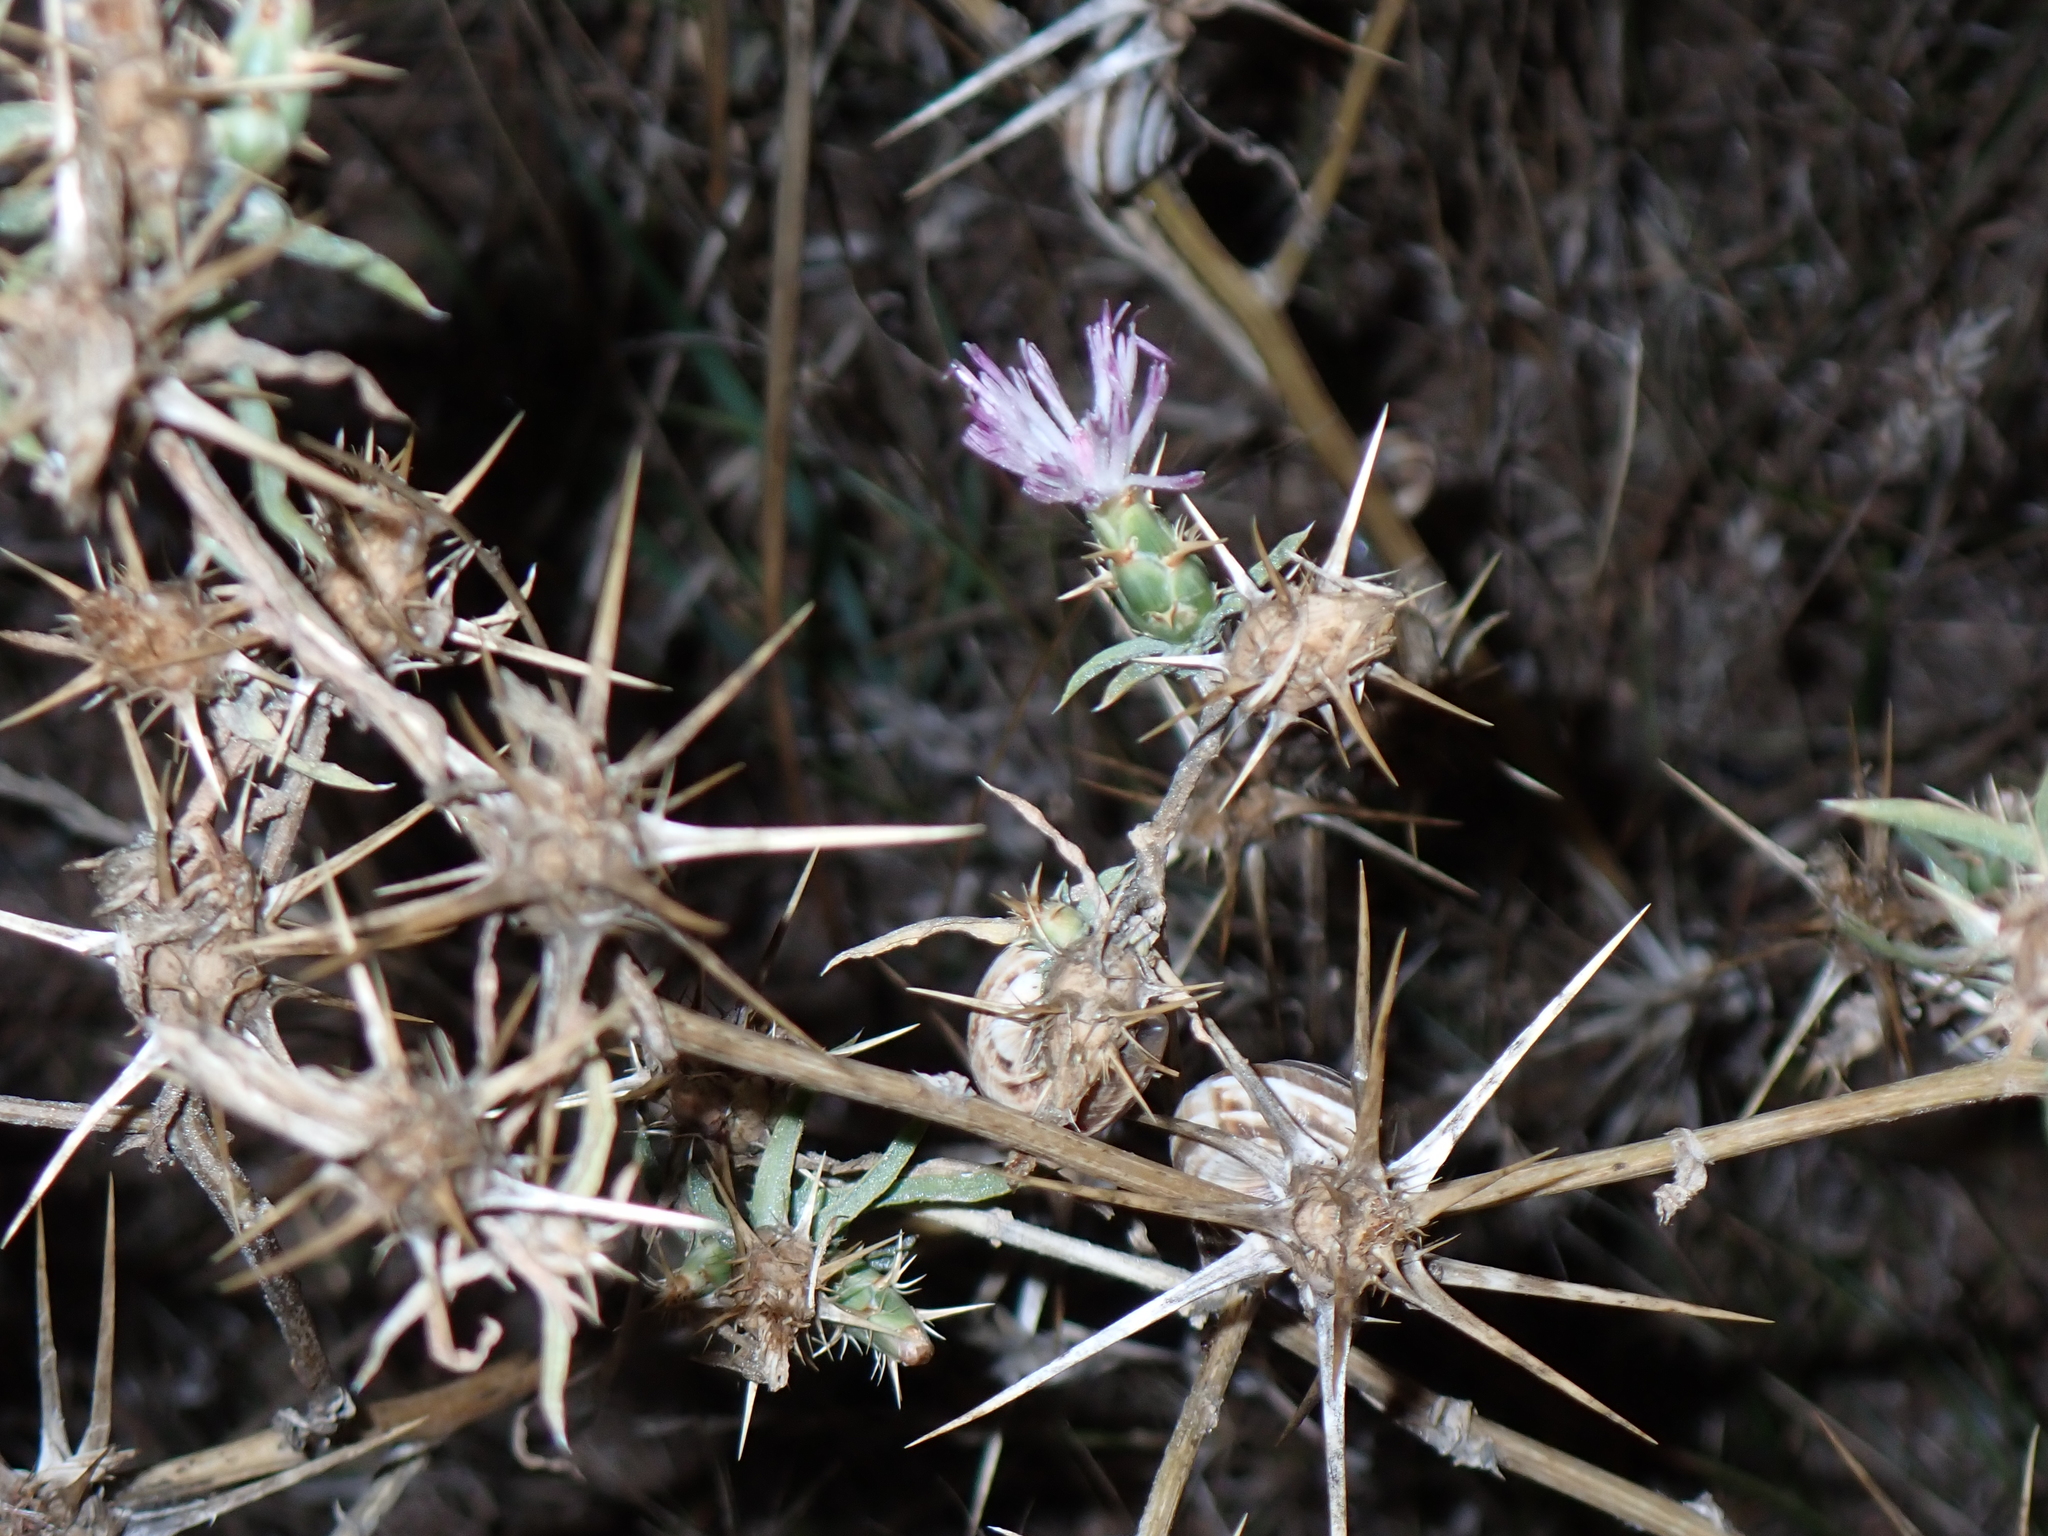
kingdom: Plantae
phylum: Tracheophyta
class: Magnoliopsida
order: Asterales
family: Asteraceae
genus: Centaurea
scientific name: Centaurea calcitrapa
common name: Red star-thistle
